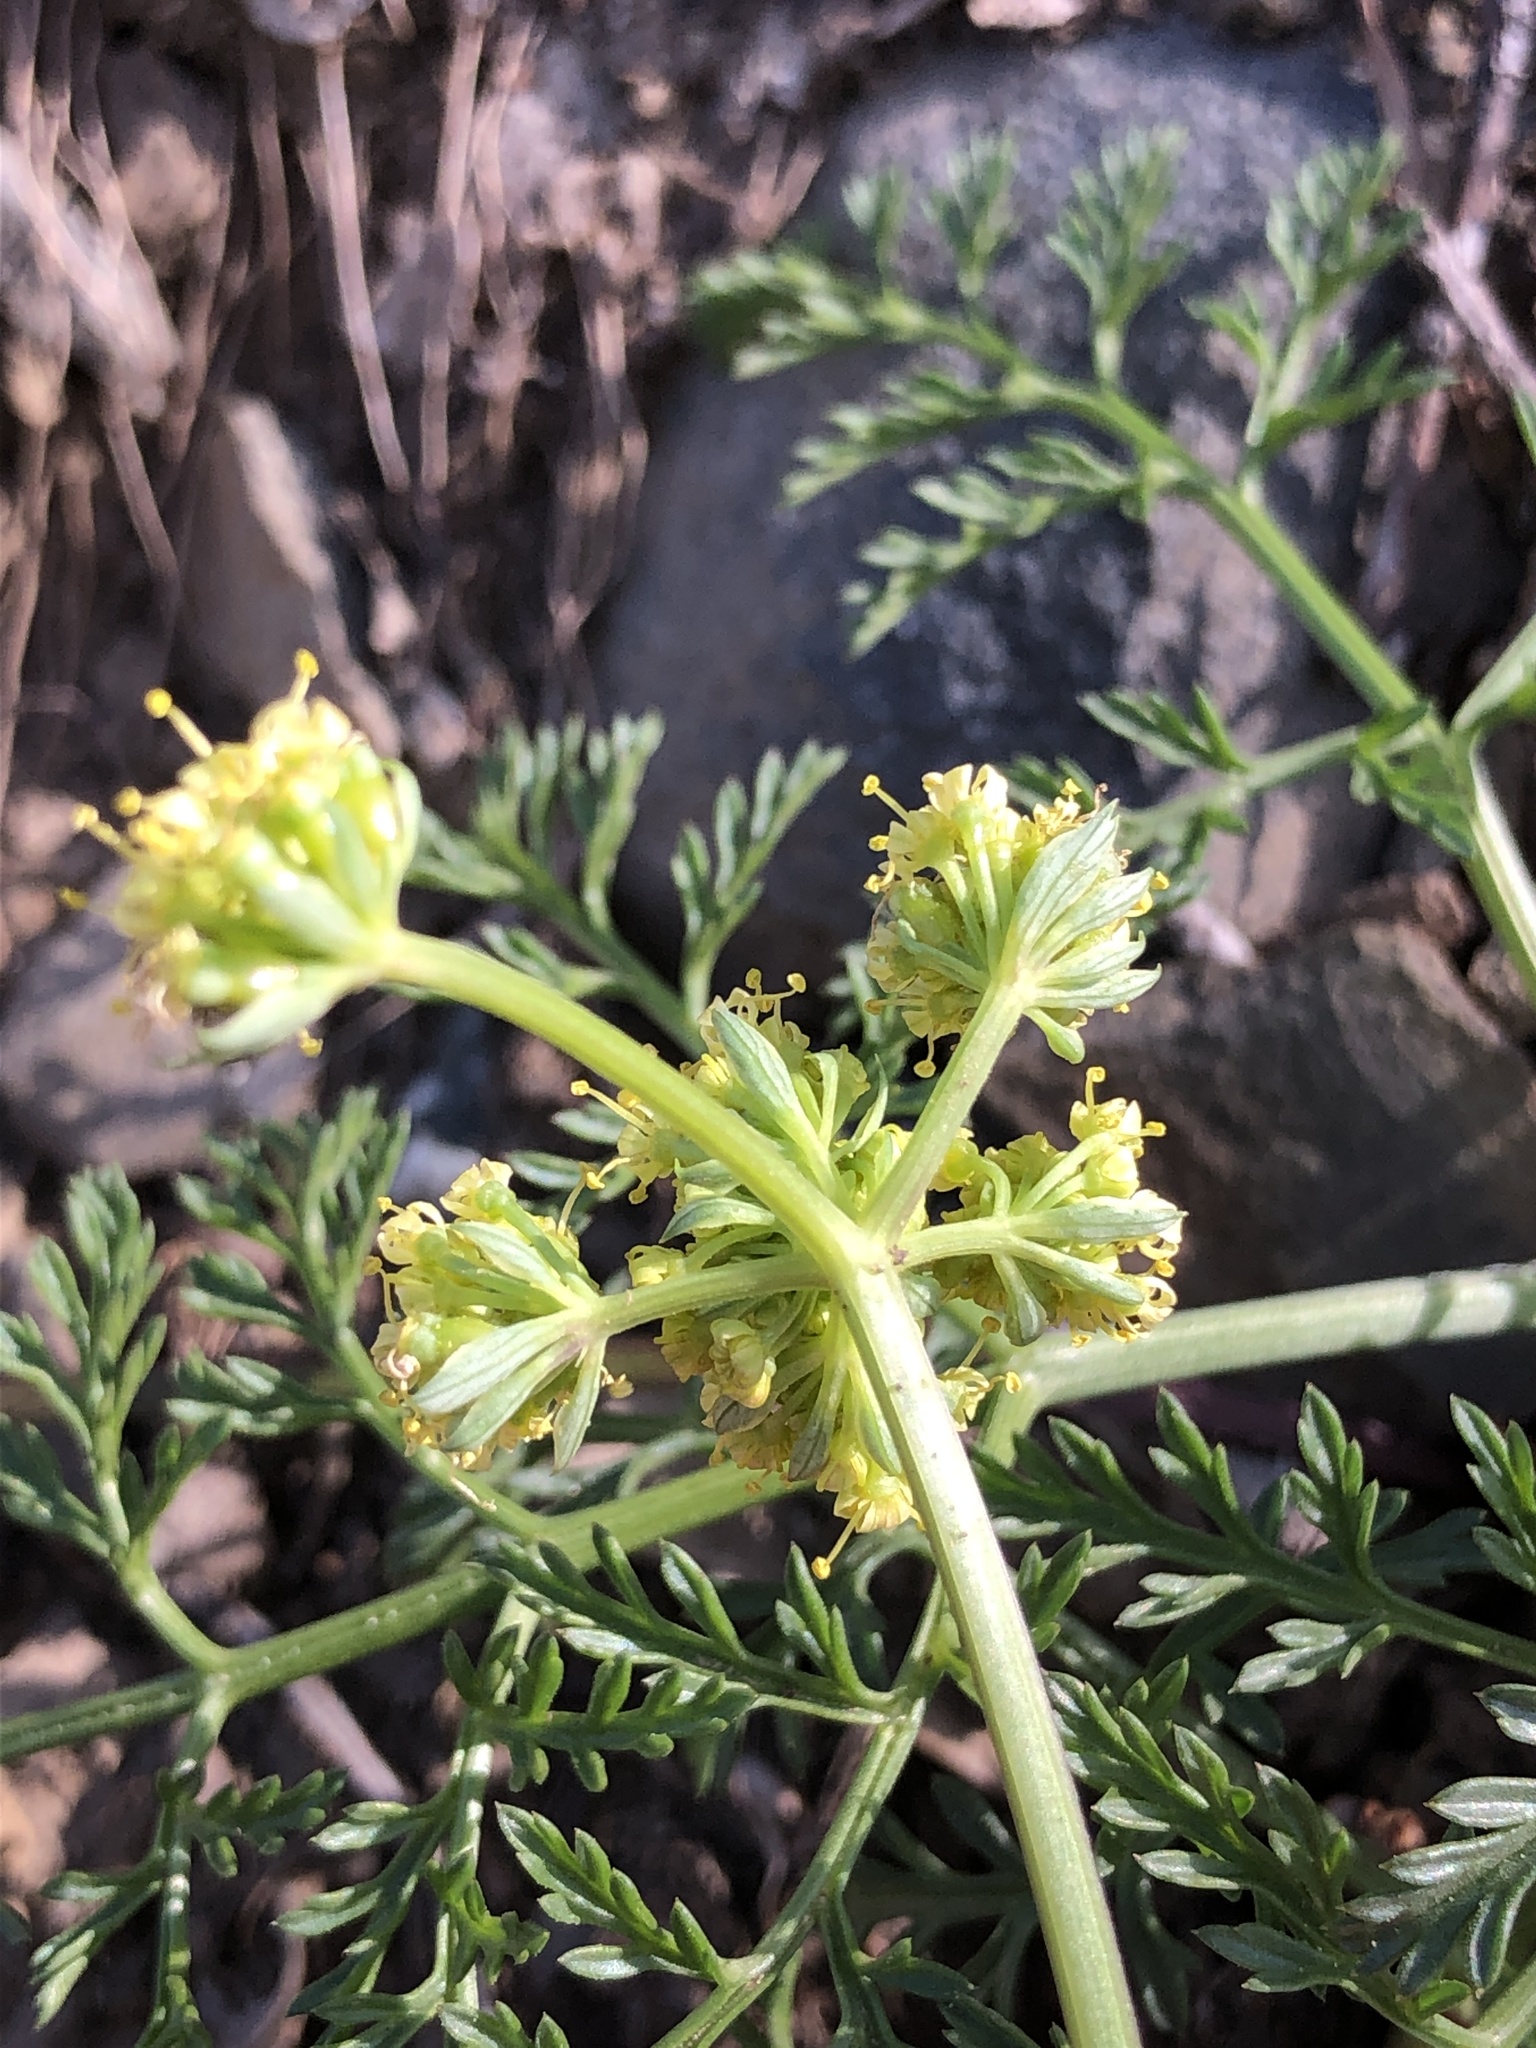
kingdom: Plantae
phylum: Tracheophyta
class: Magnoliopsida
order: Apiales
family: Apiaceae
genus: Lomatium
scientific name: Lomatium observatorium
